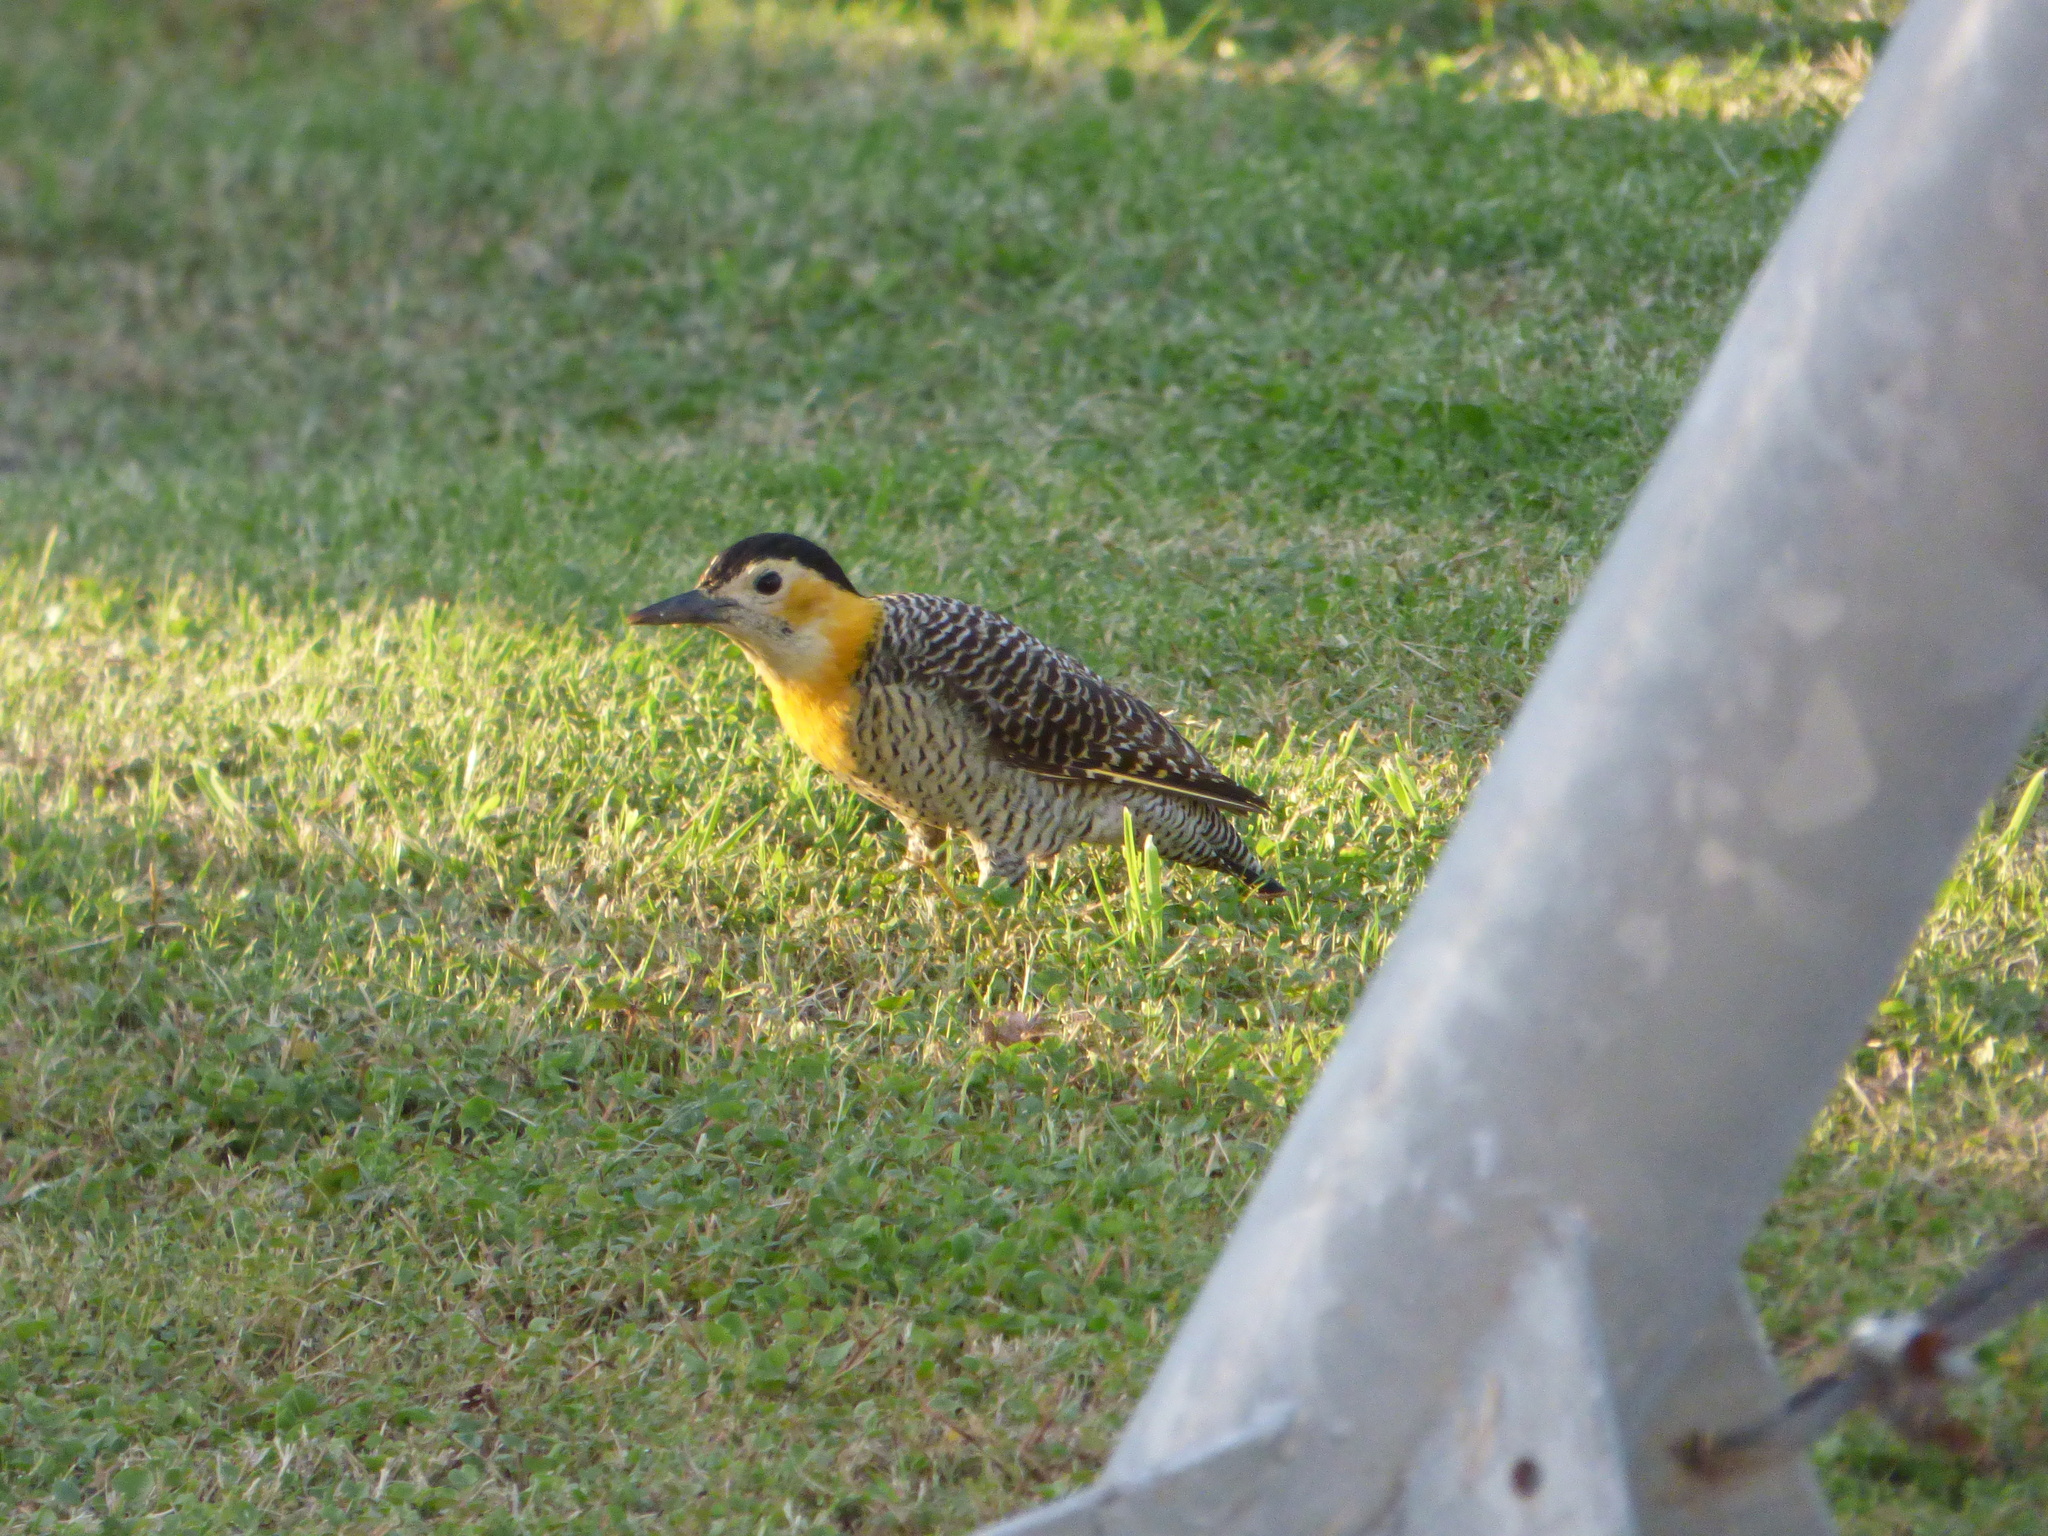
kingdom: Animalia
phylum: Chordata
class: Aves
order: Piciformes
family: Picidae
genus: Colaptes
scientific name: Colaptes campestris
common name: Campo flicker
